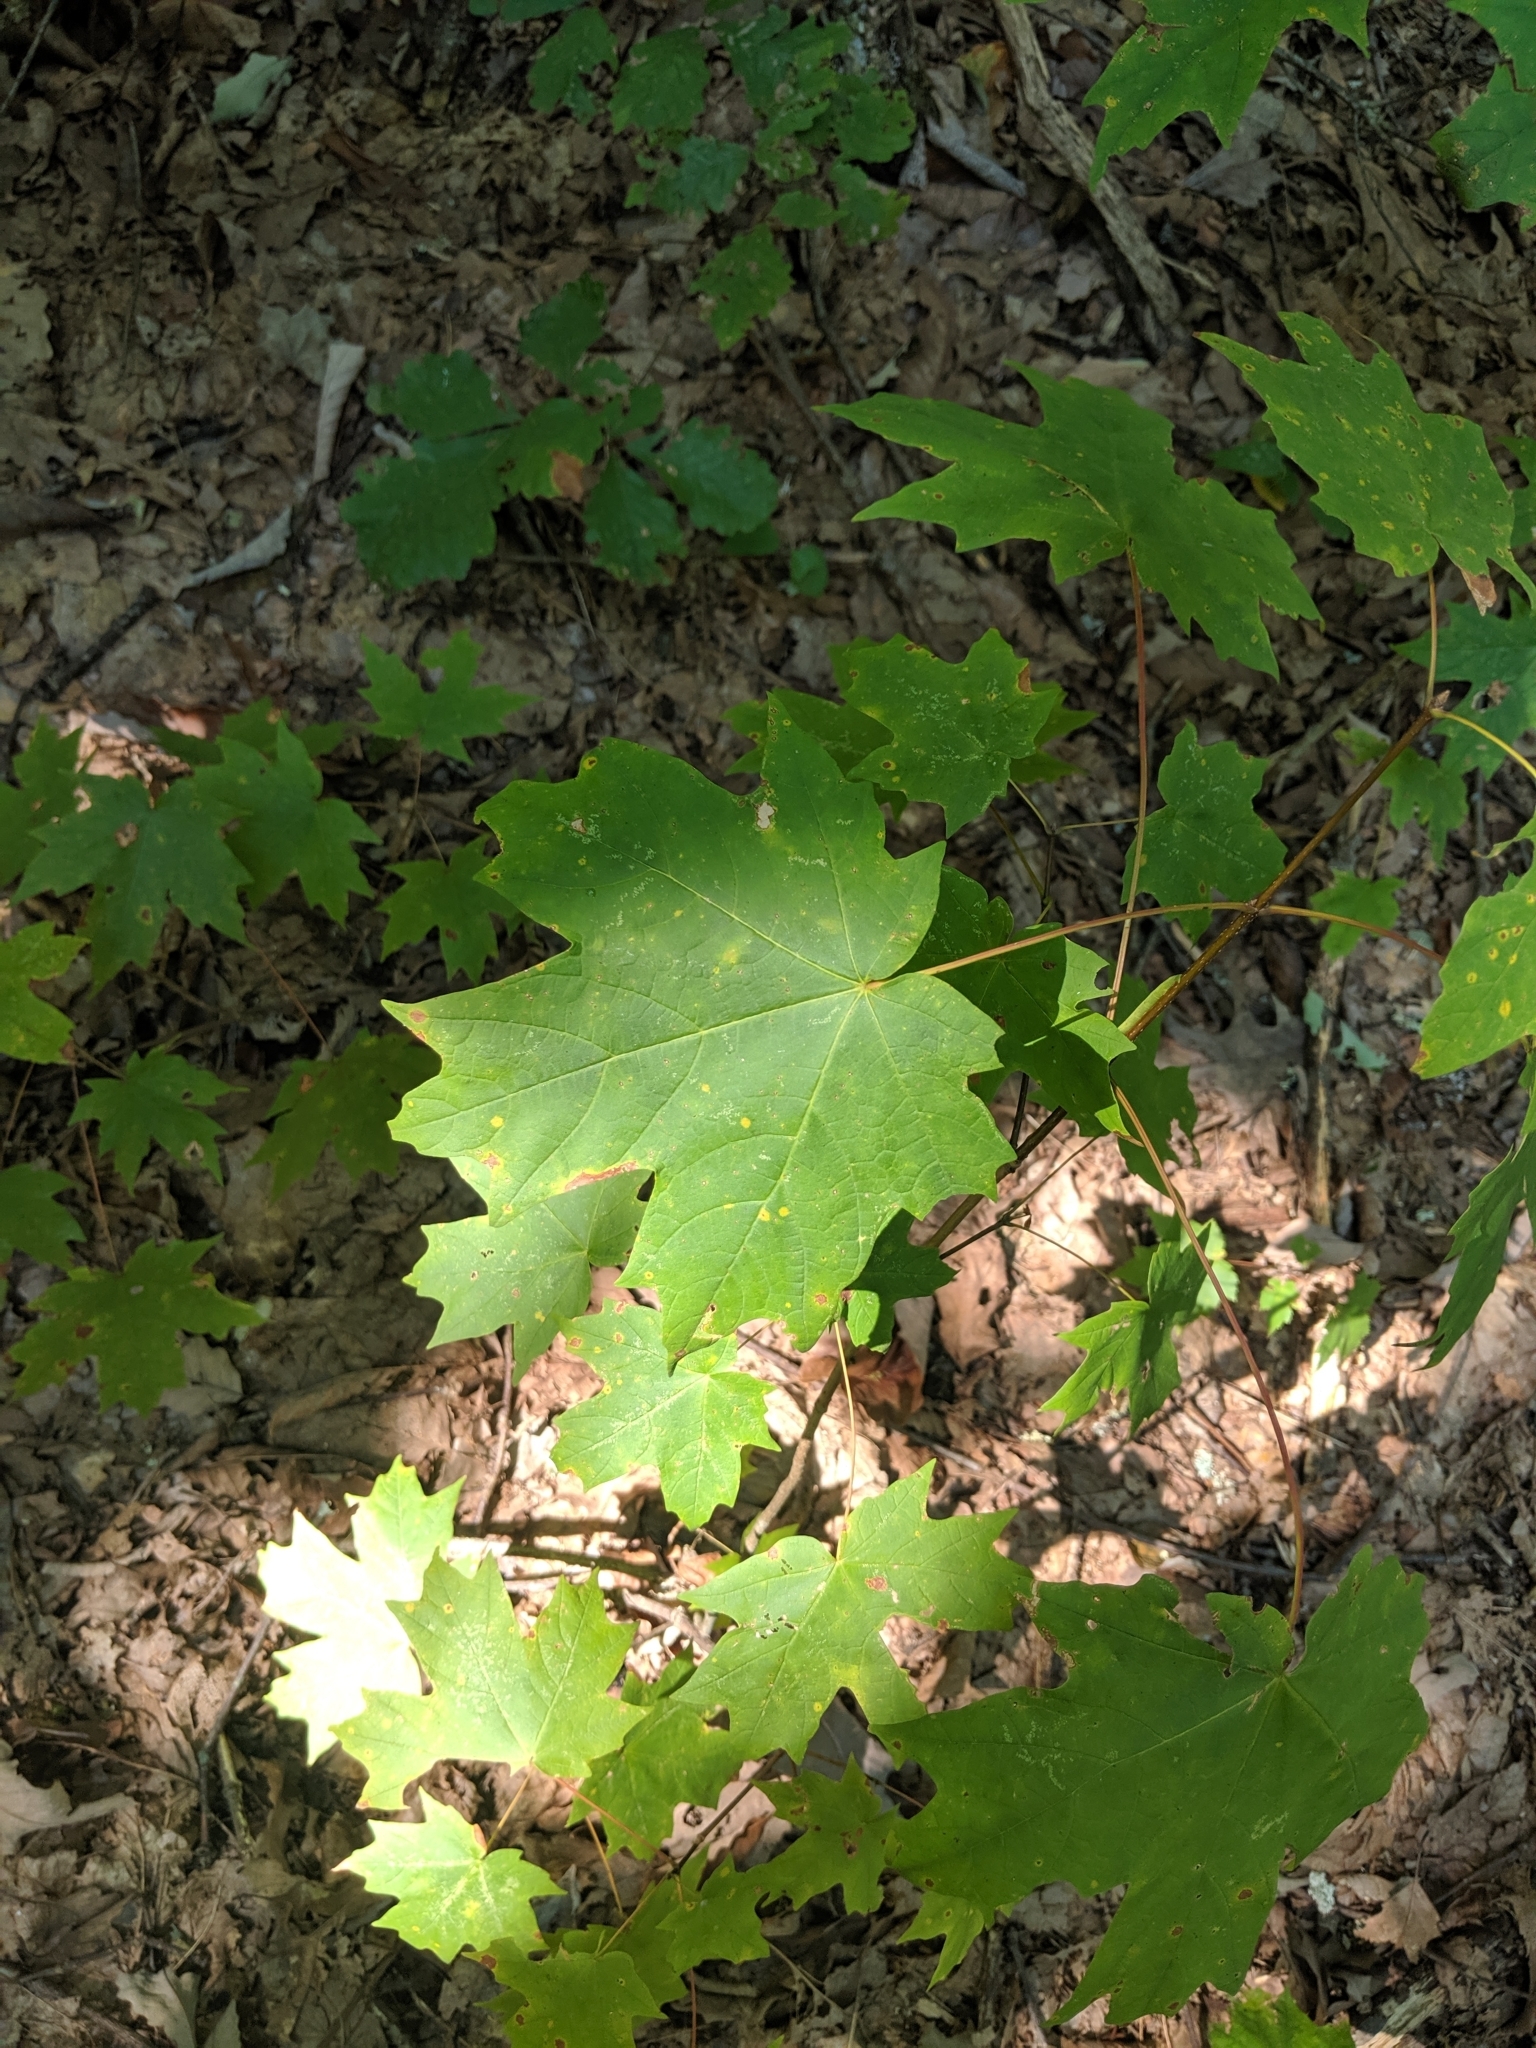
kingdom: Plantae
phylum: Tracheophyta
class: Magnoliopsida
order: Sapindales
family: Sapindaceae
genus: Acer
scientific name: Acer saccharum
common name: Sugar maple
